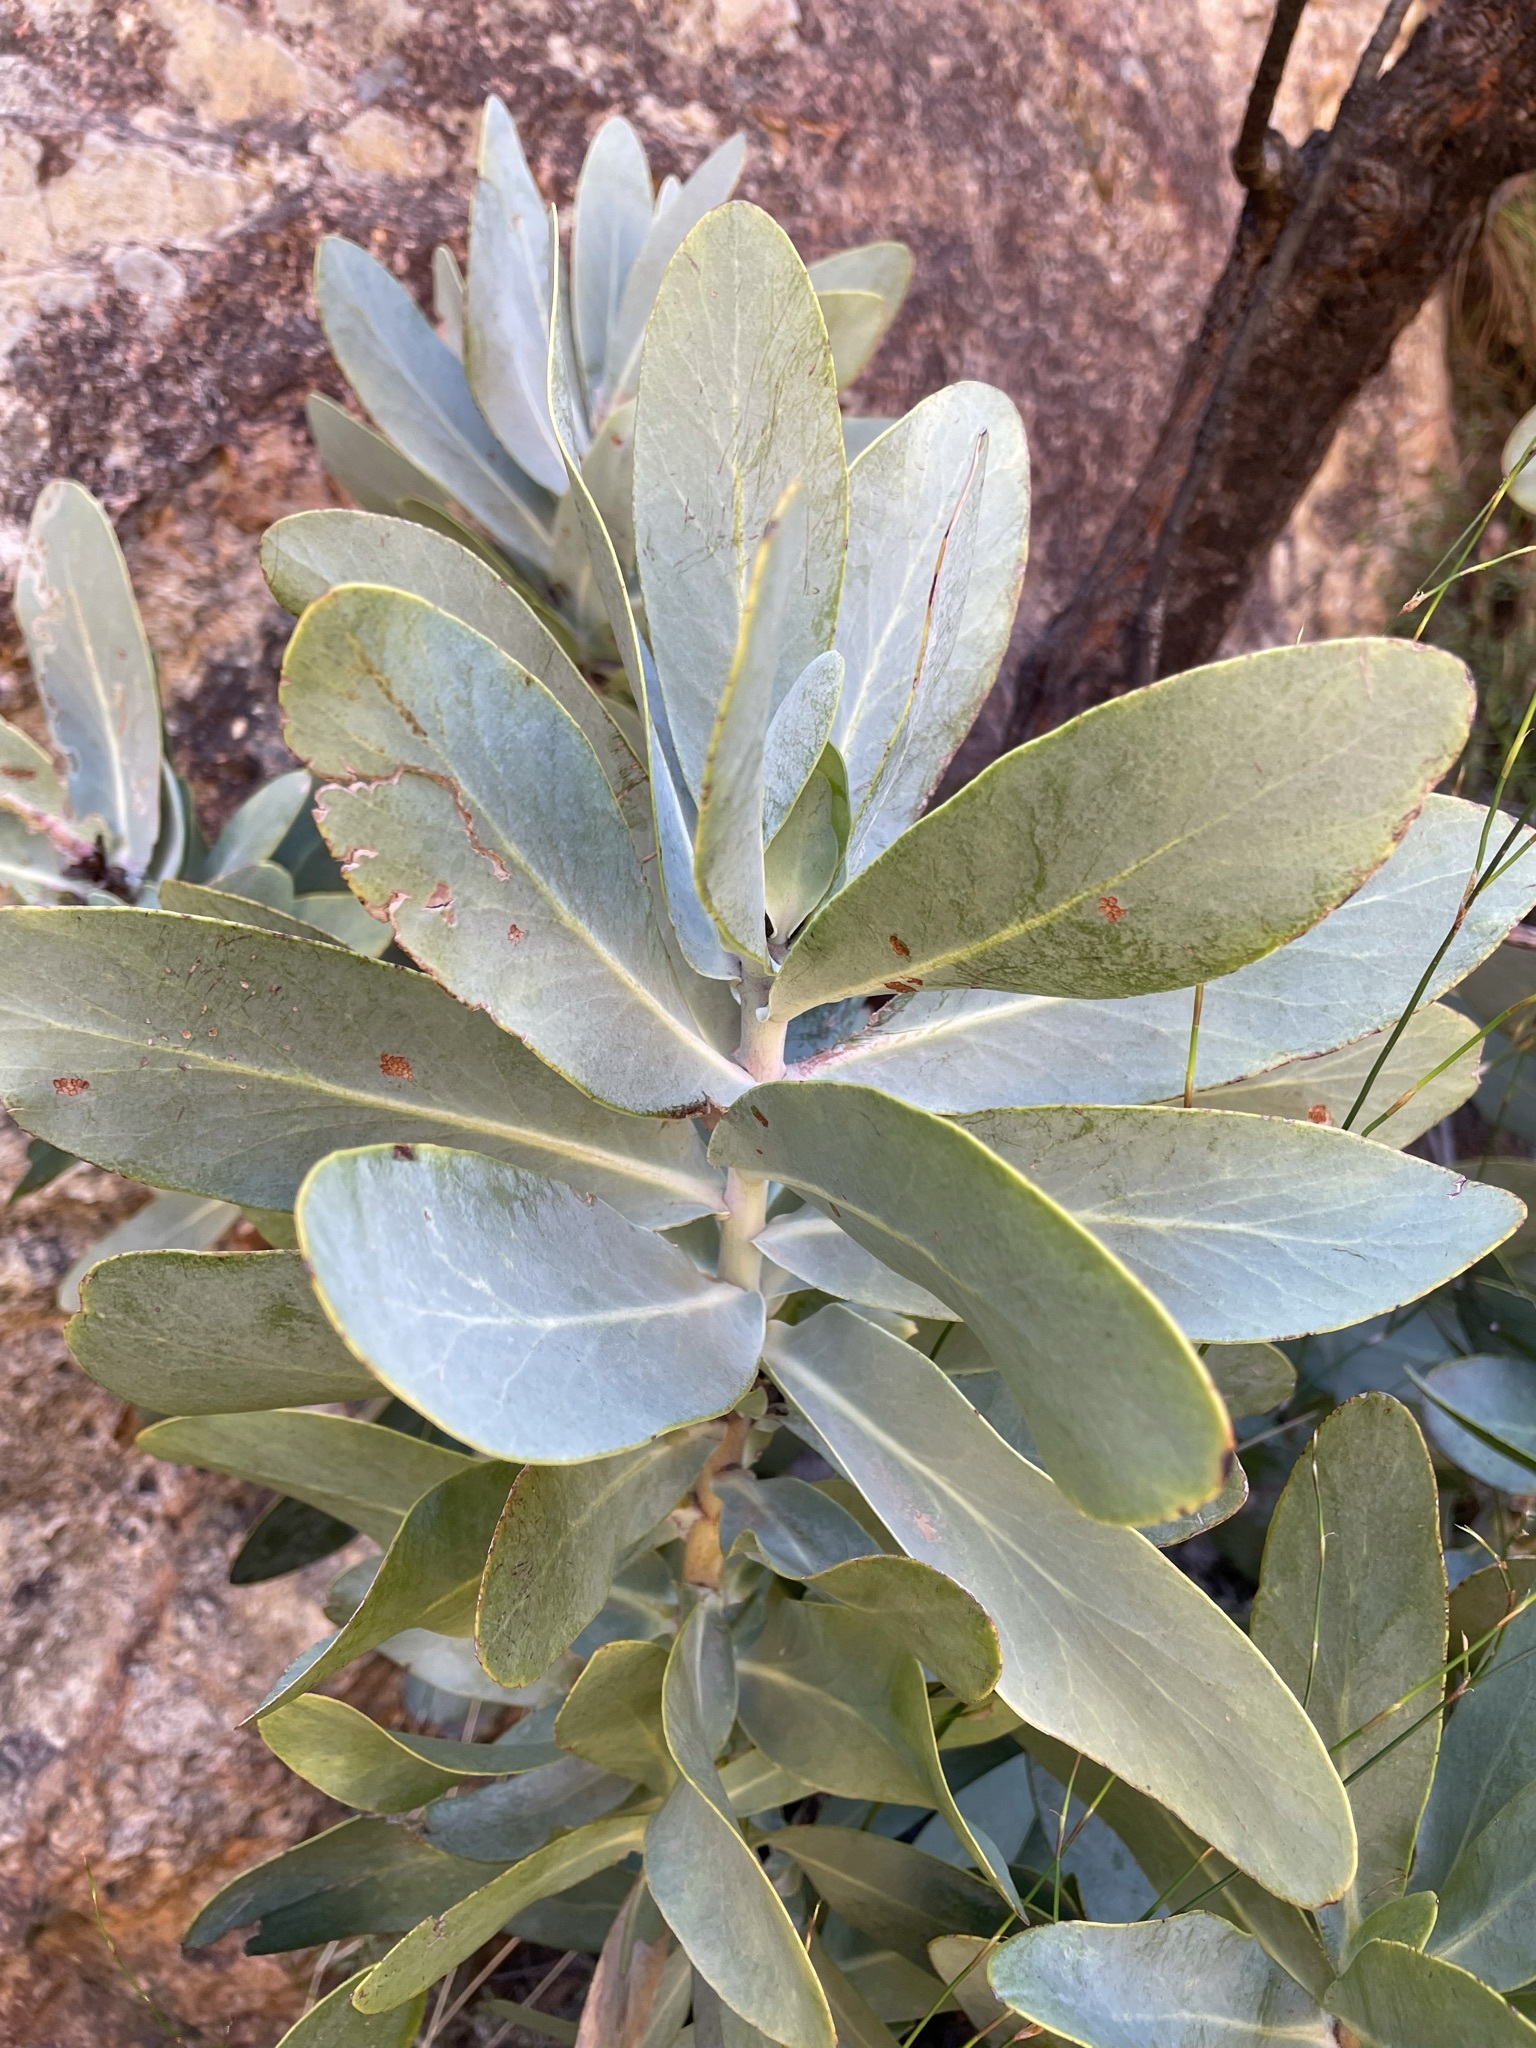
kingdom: Plantae
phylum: Tracheophyta
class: Magnoliopsida
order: Proteales
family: Proteaceae
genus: Protea
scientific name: Protea nitida
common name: Tree protea
